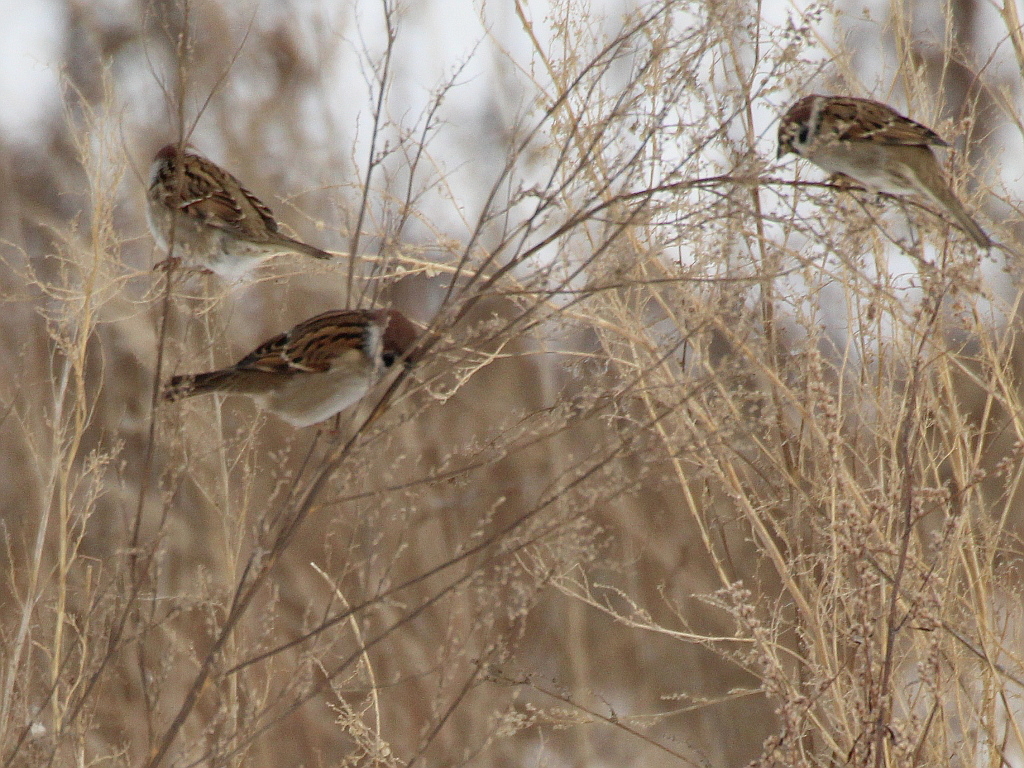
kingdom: Animalia
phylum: Chordata
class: Aves
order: Passeriformes
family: Passeridae
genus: Passer
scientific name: Passer montanus
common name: Eurasian tree sparrow
